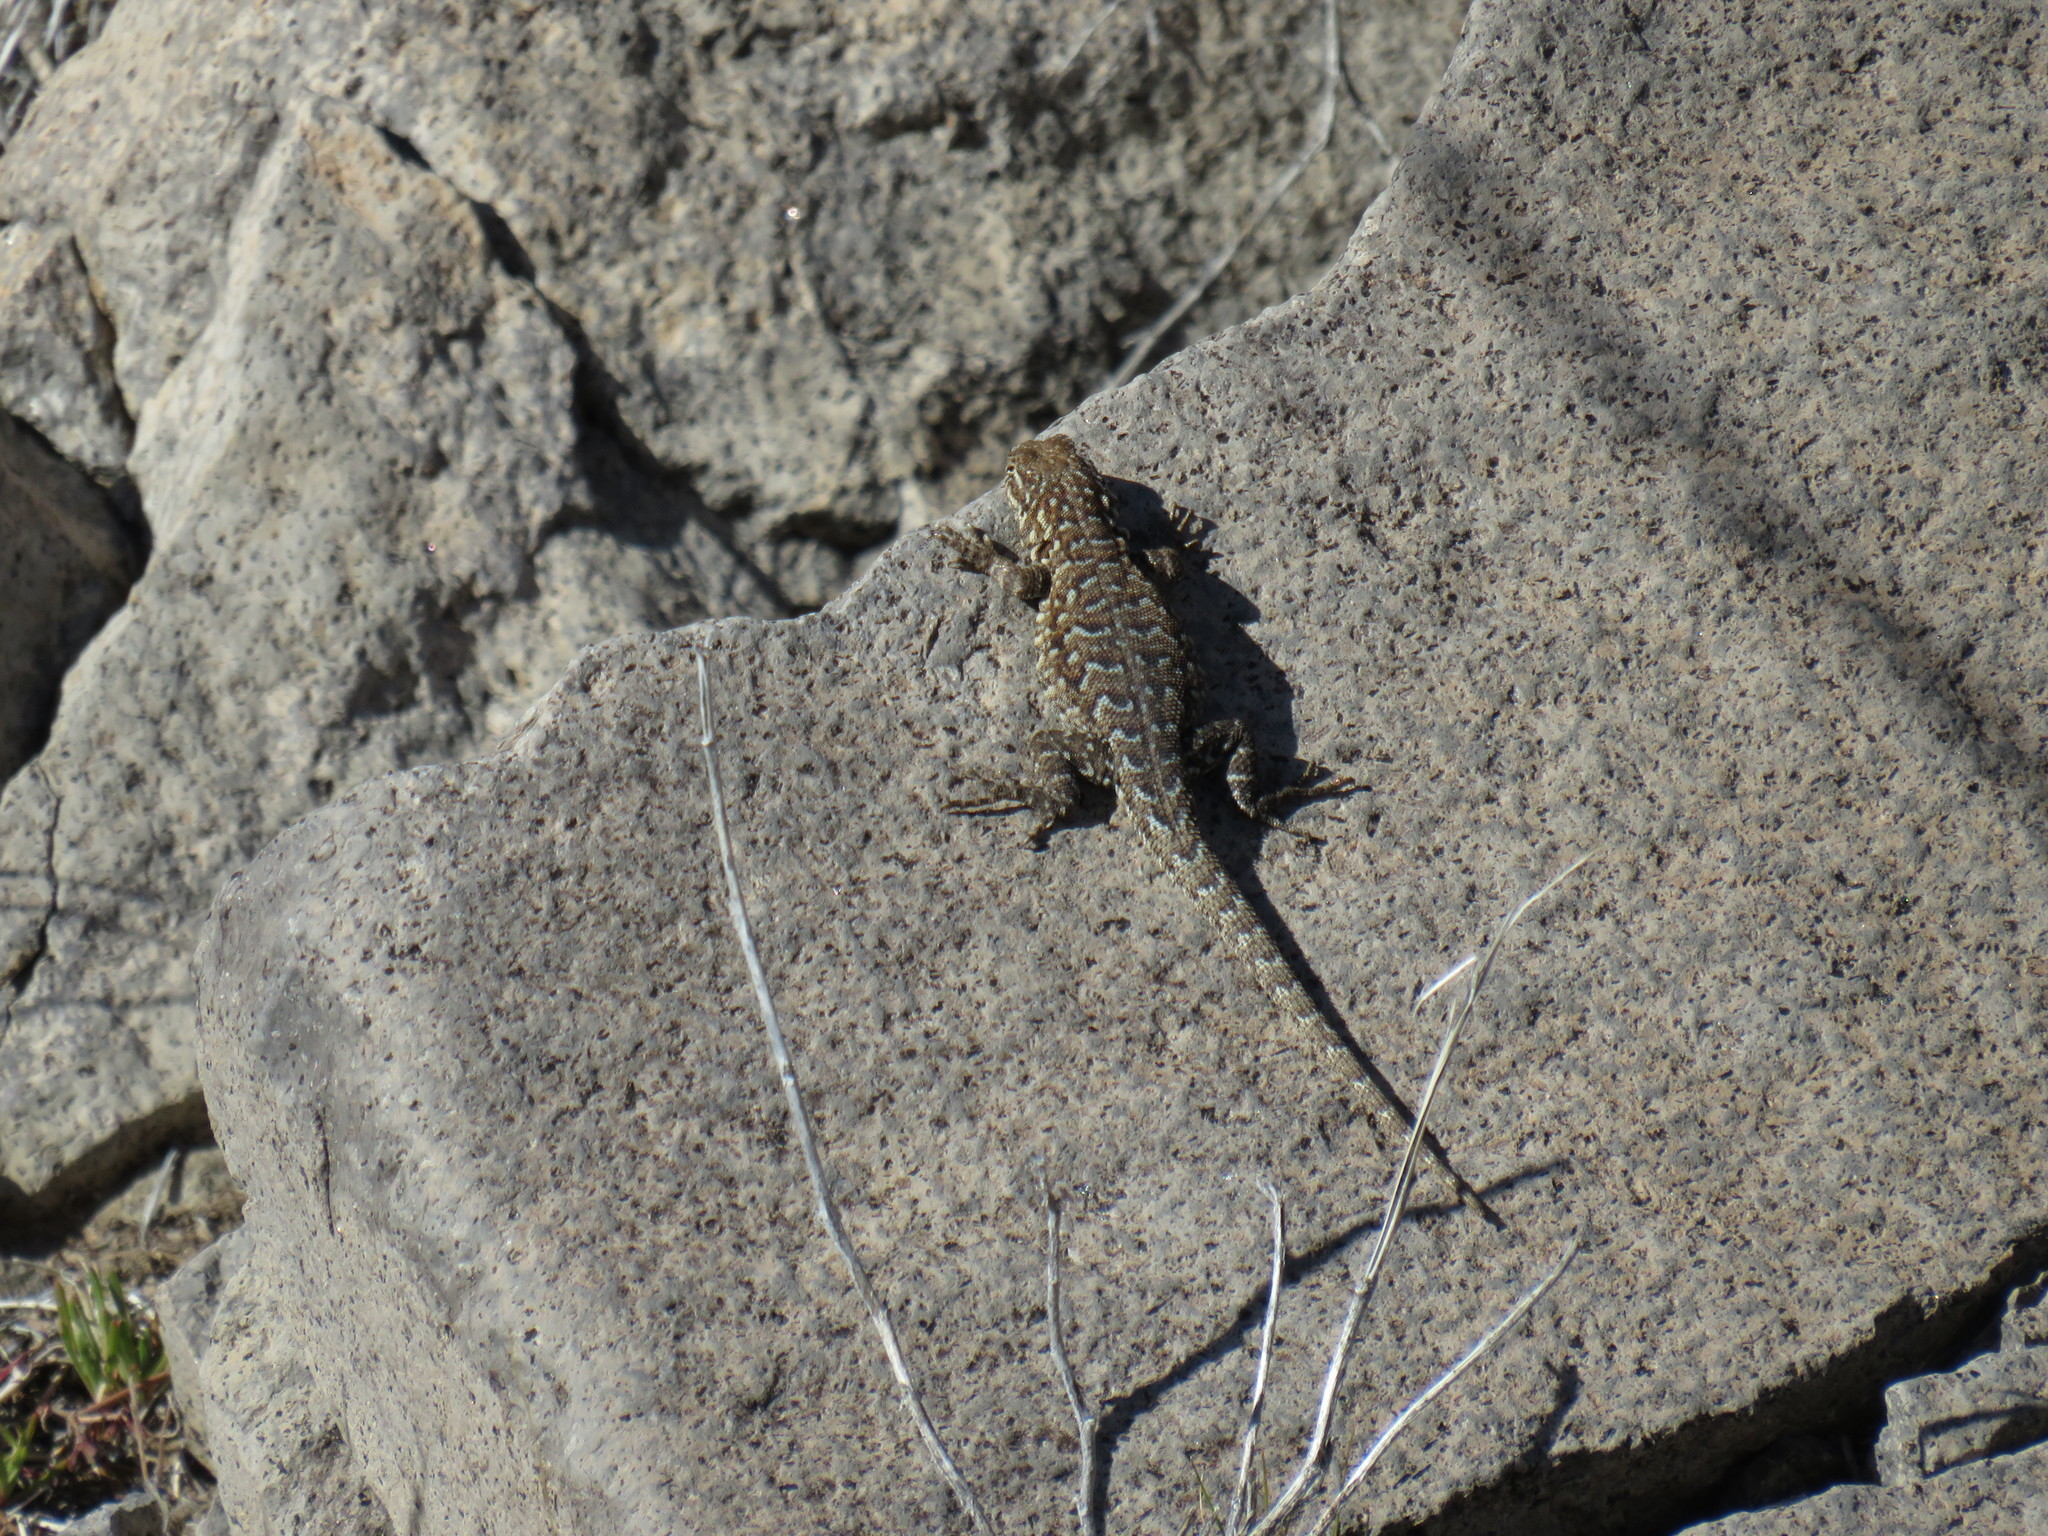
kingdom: Animalia
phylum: Chordata
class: Squamata
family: Phrynosomatidae
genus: Uta
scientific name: Uta stansburiana
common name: Side-blotched lizard
